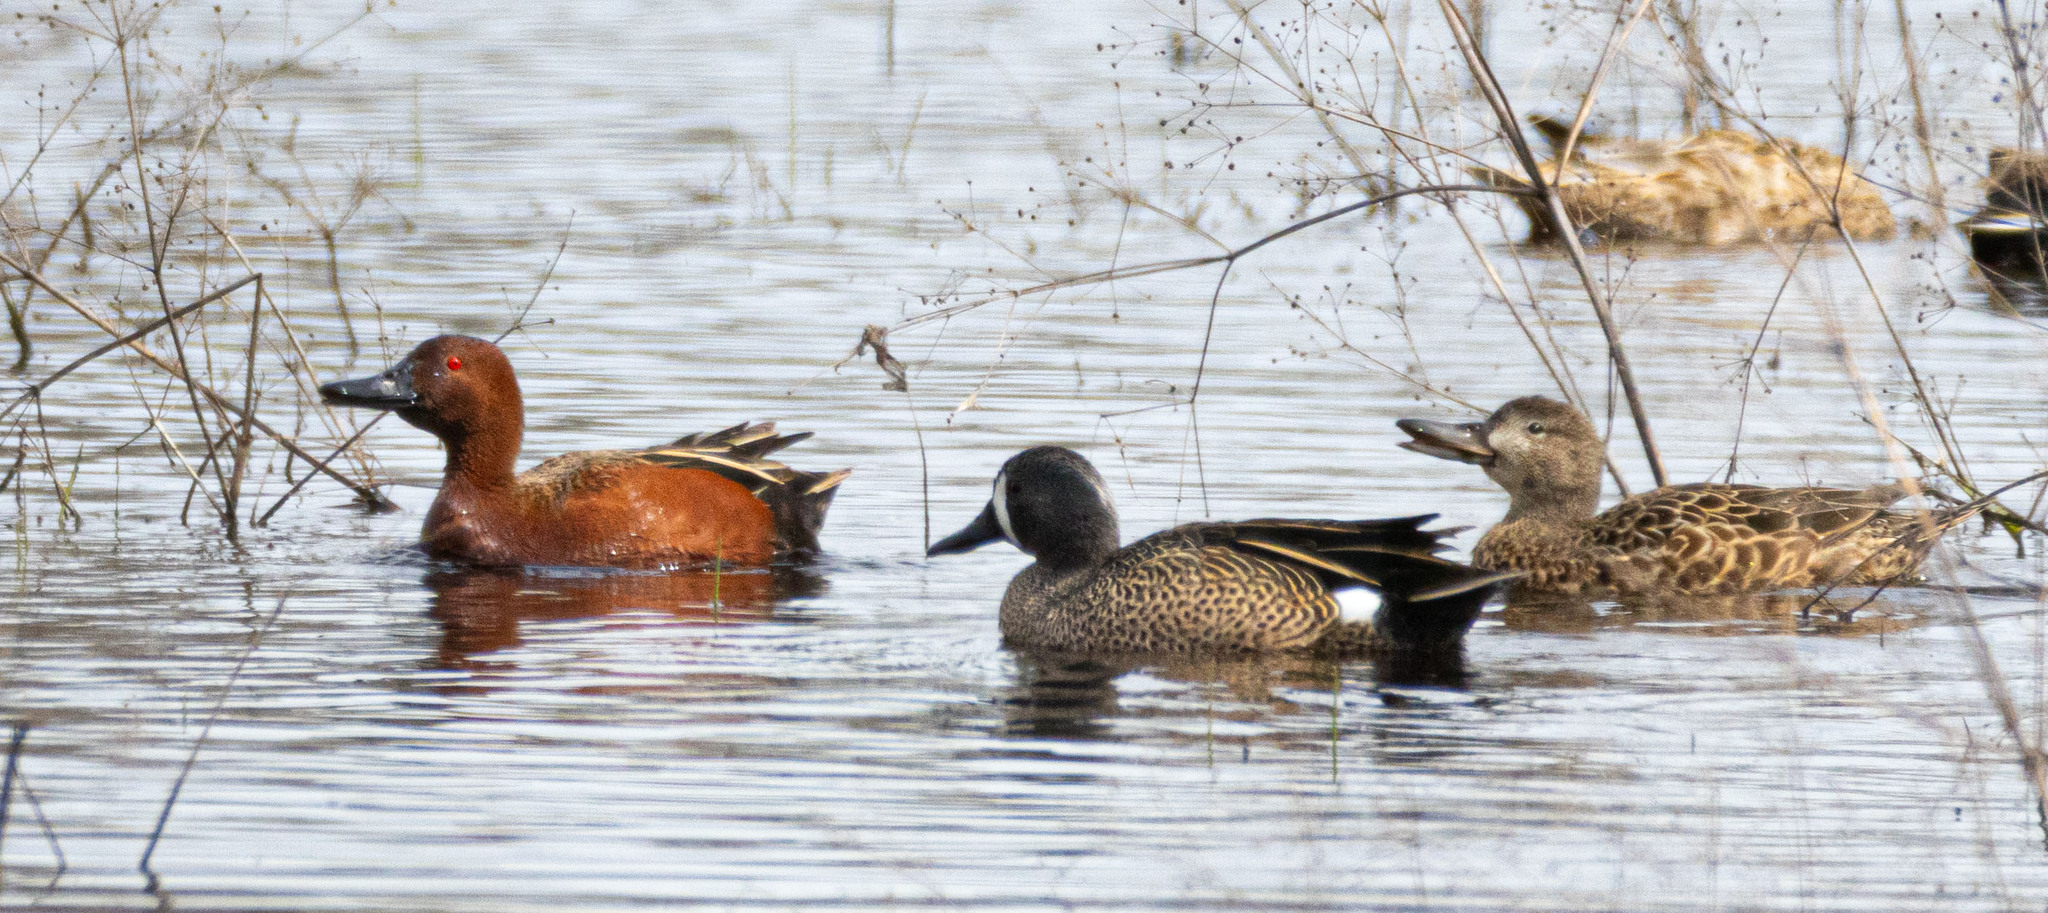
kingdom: Animalia
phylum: Chordata
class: Aves
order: Anseriformes
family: Anatidae
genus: Spatula
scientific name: Spatula discors
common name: Blue-winged teal
